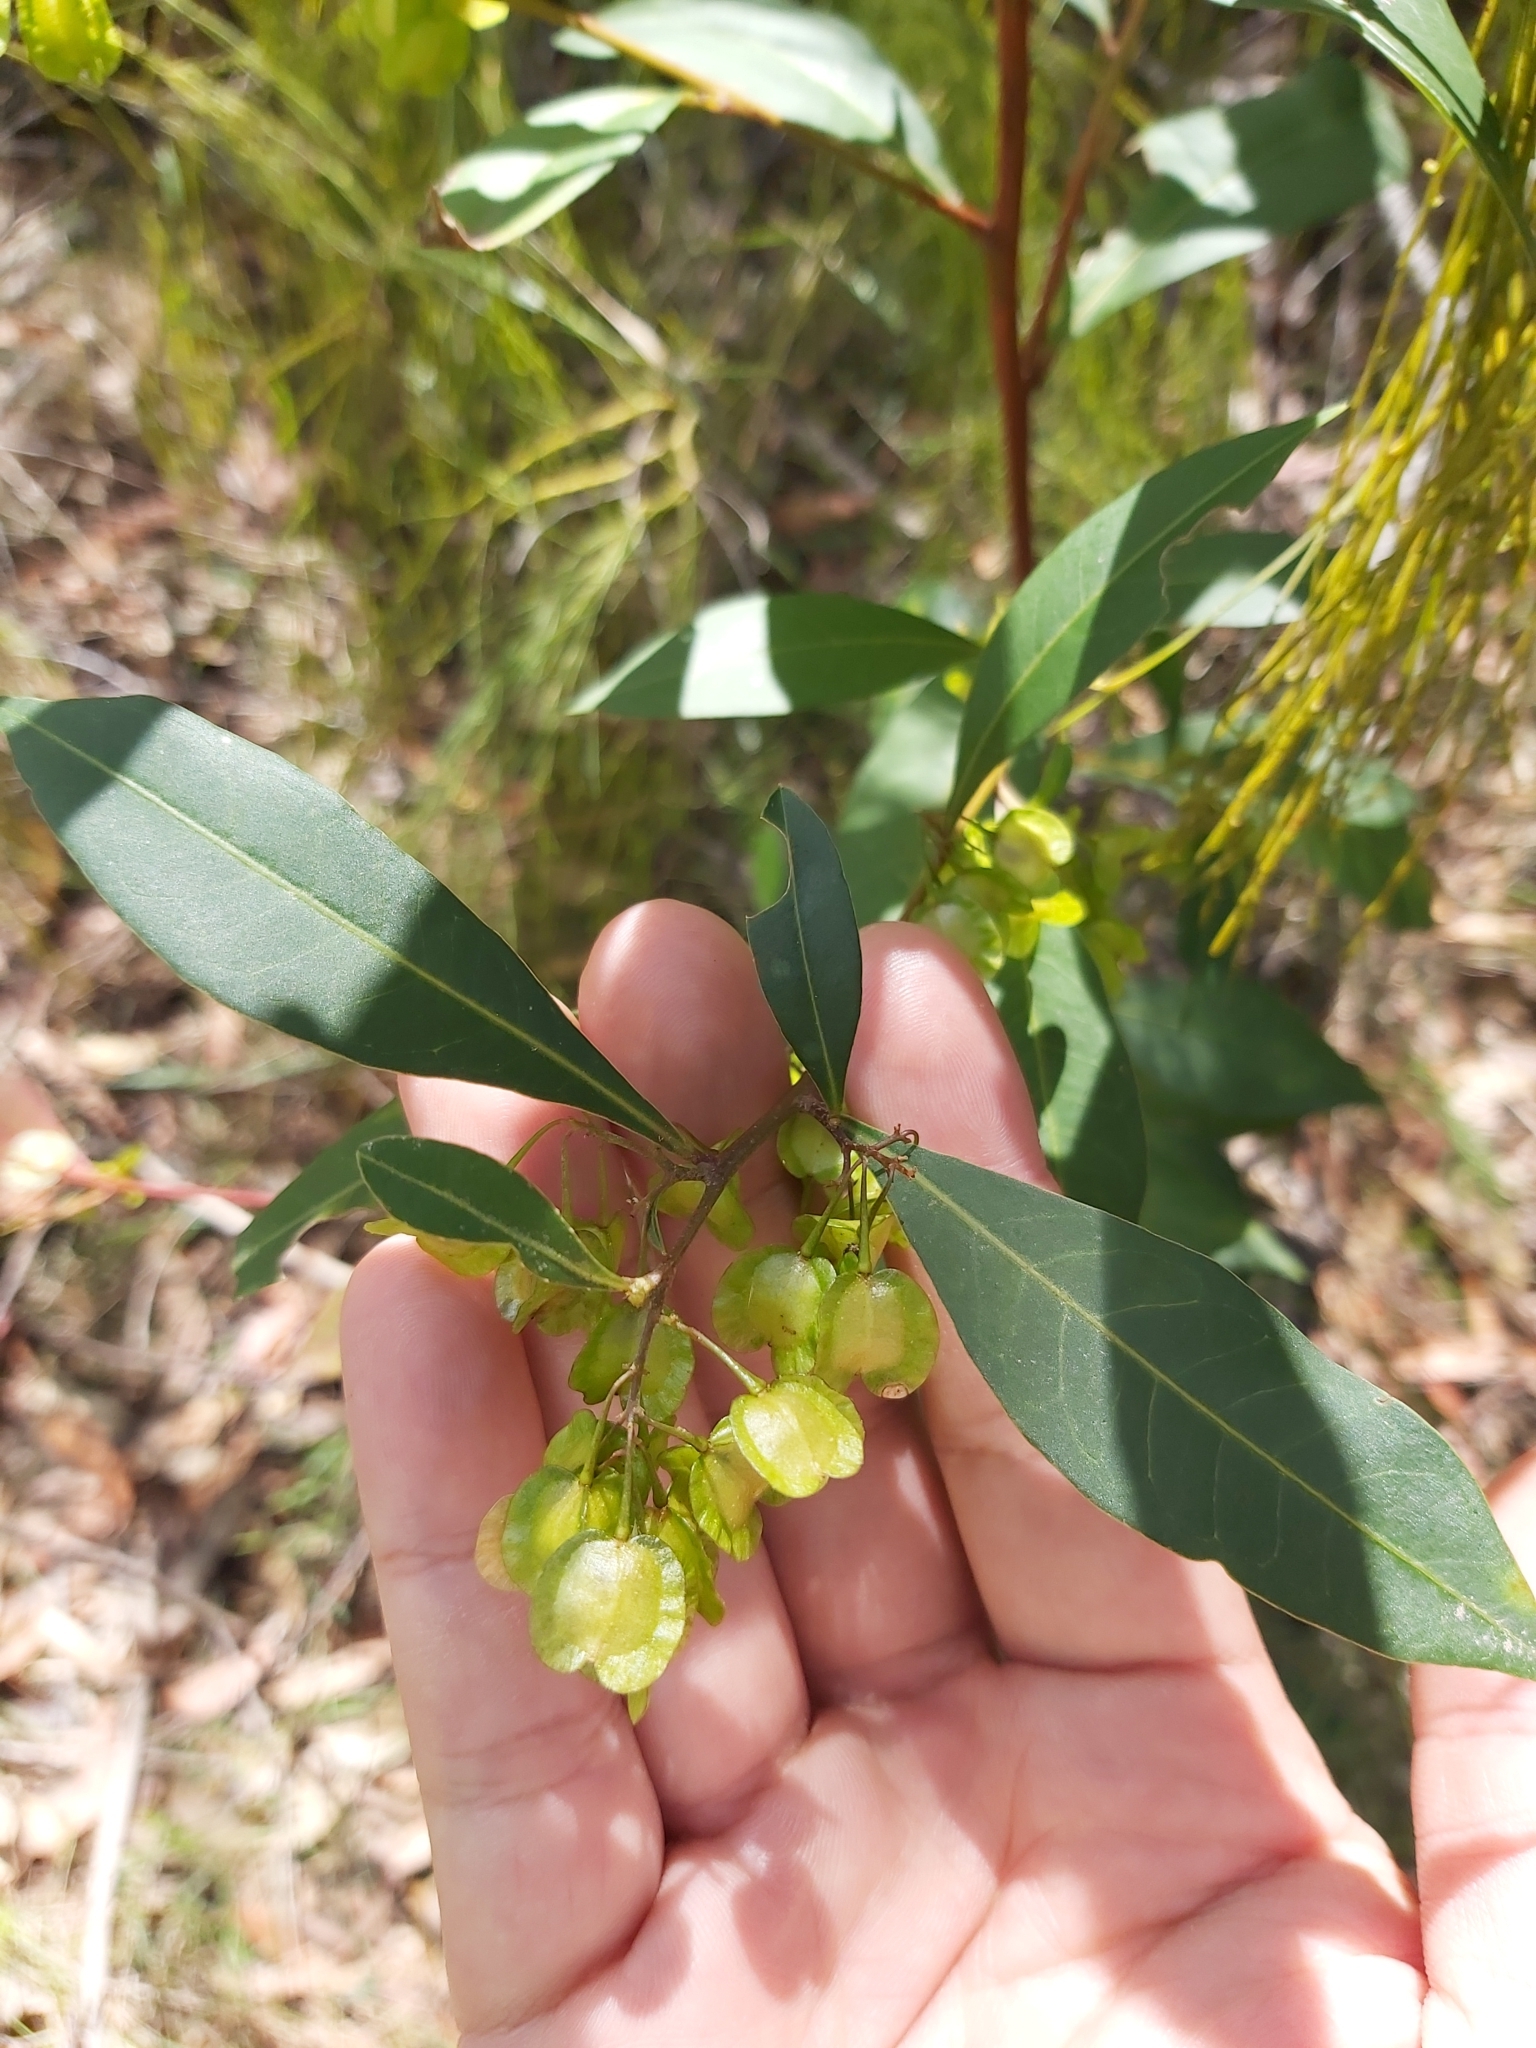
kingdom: Plantae
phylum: Tracheophyta
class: Magnoliopsida
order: Sapindales
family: Sapindaceae
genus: Dodonaea
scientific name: Dodonaea triquetra
